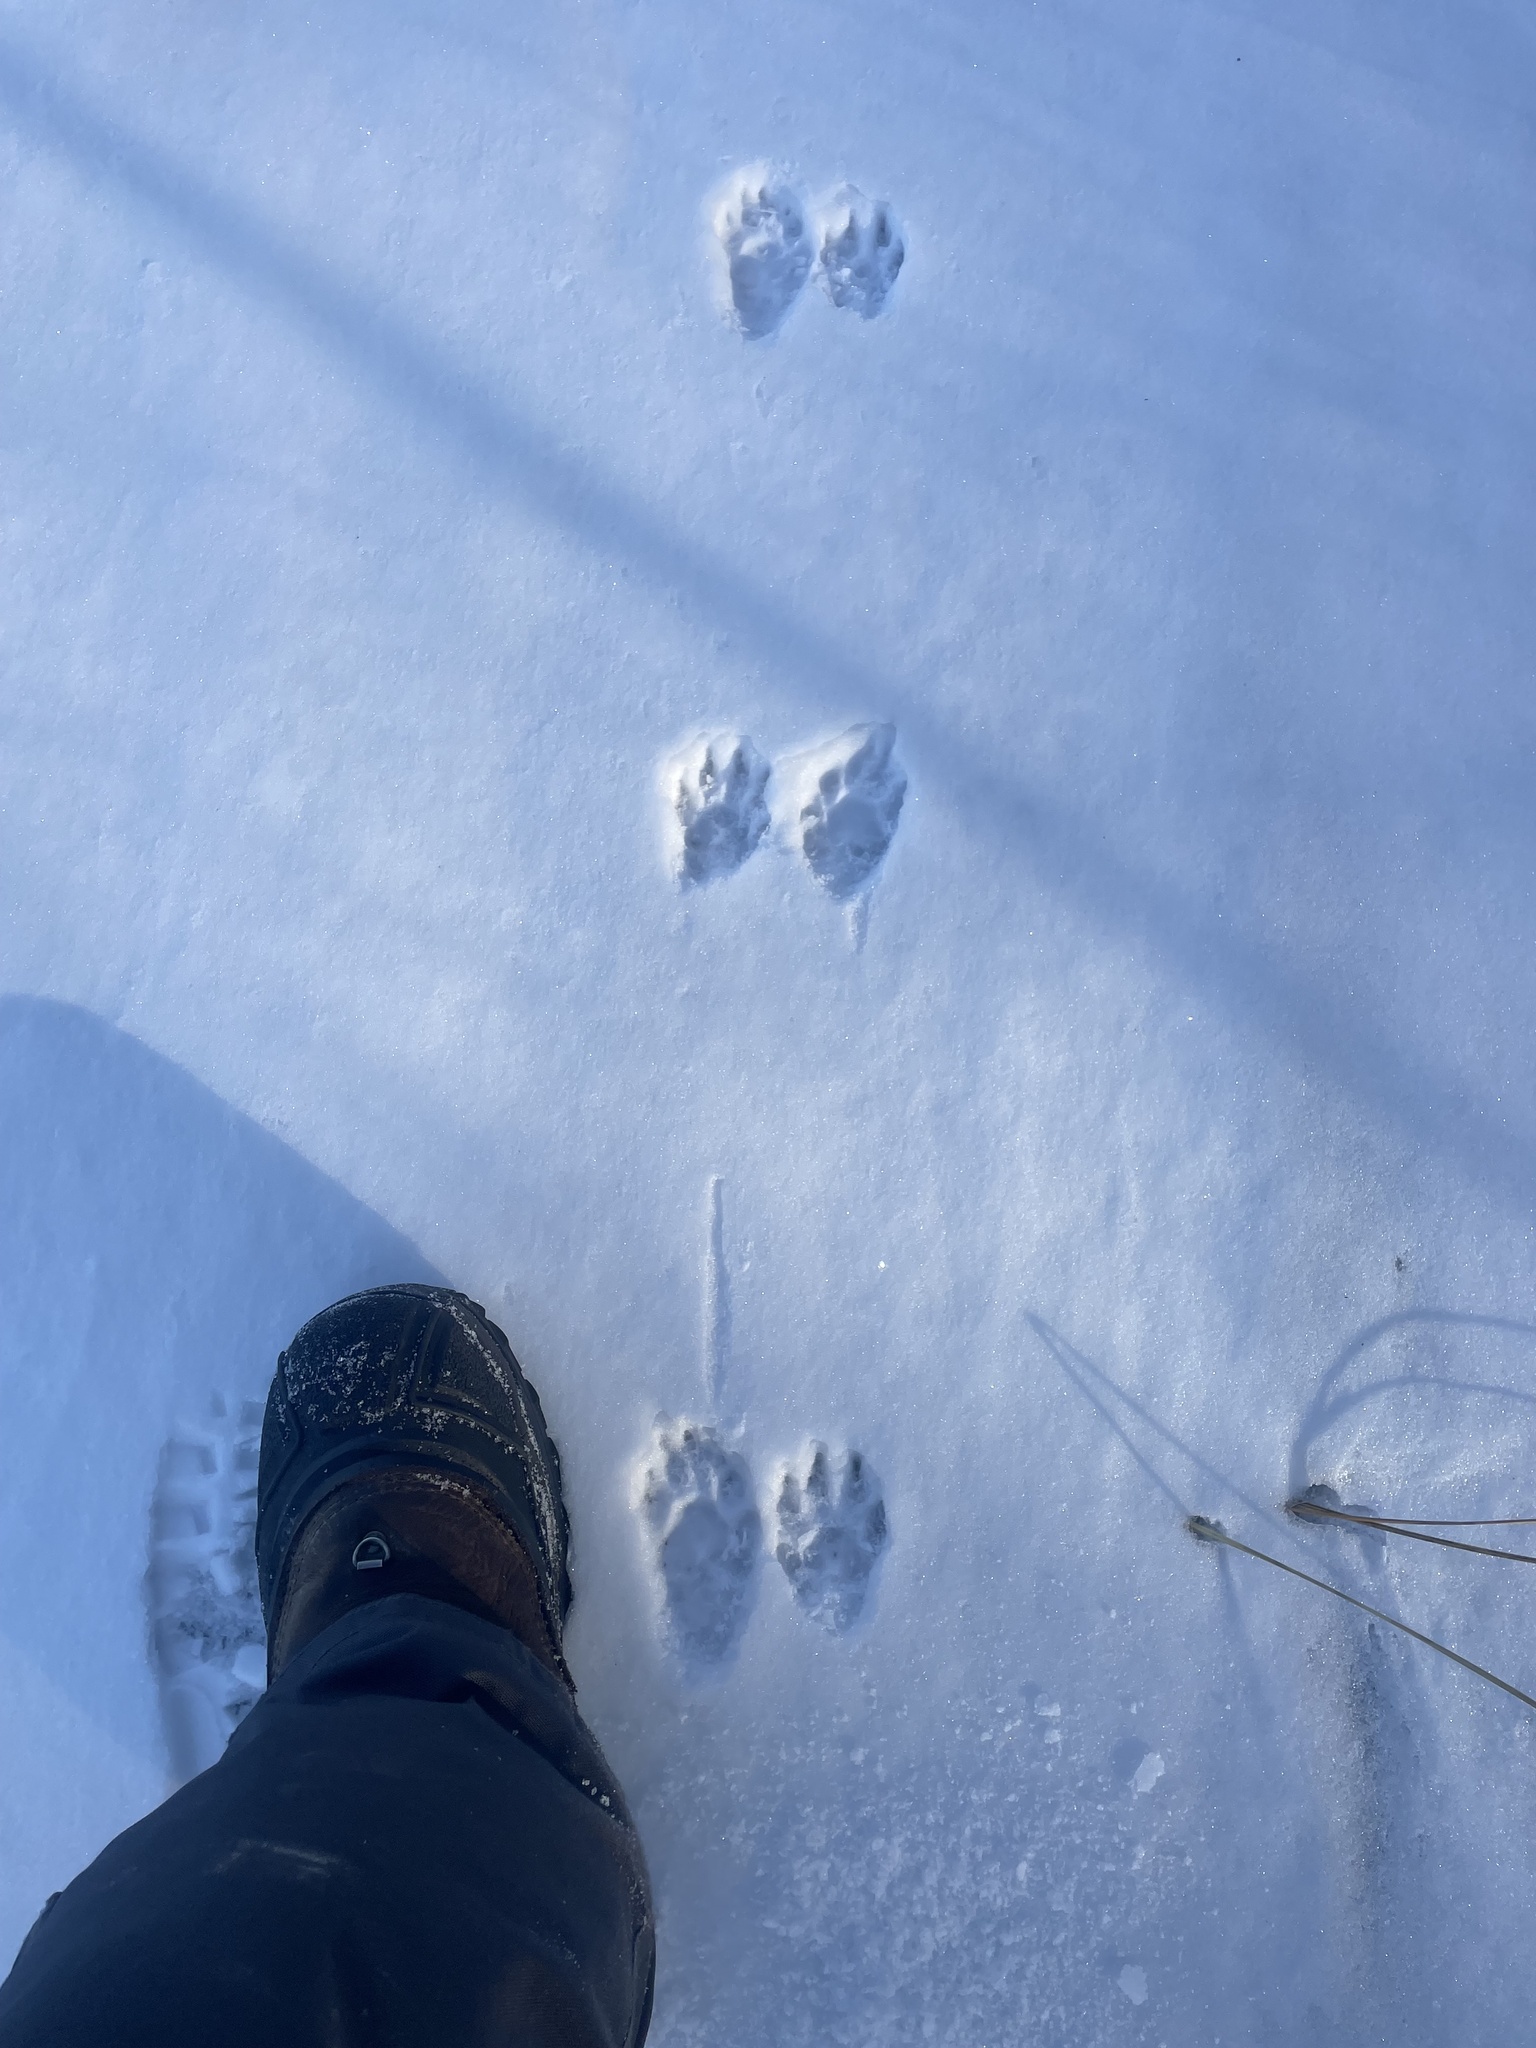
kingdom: Animalia
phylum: Chordata
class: Mammalia
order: Carnivora
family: Procyonidae
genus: Procyon
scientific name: Procyon lotor
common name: Raccoon
